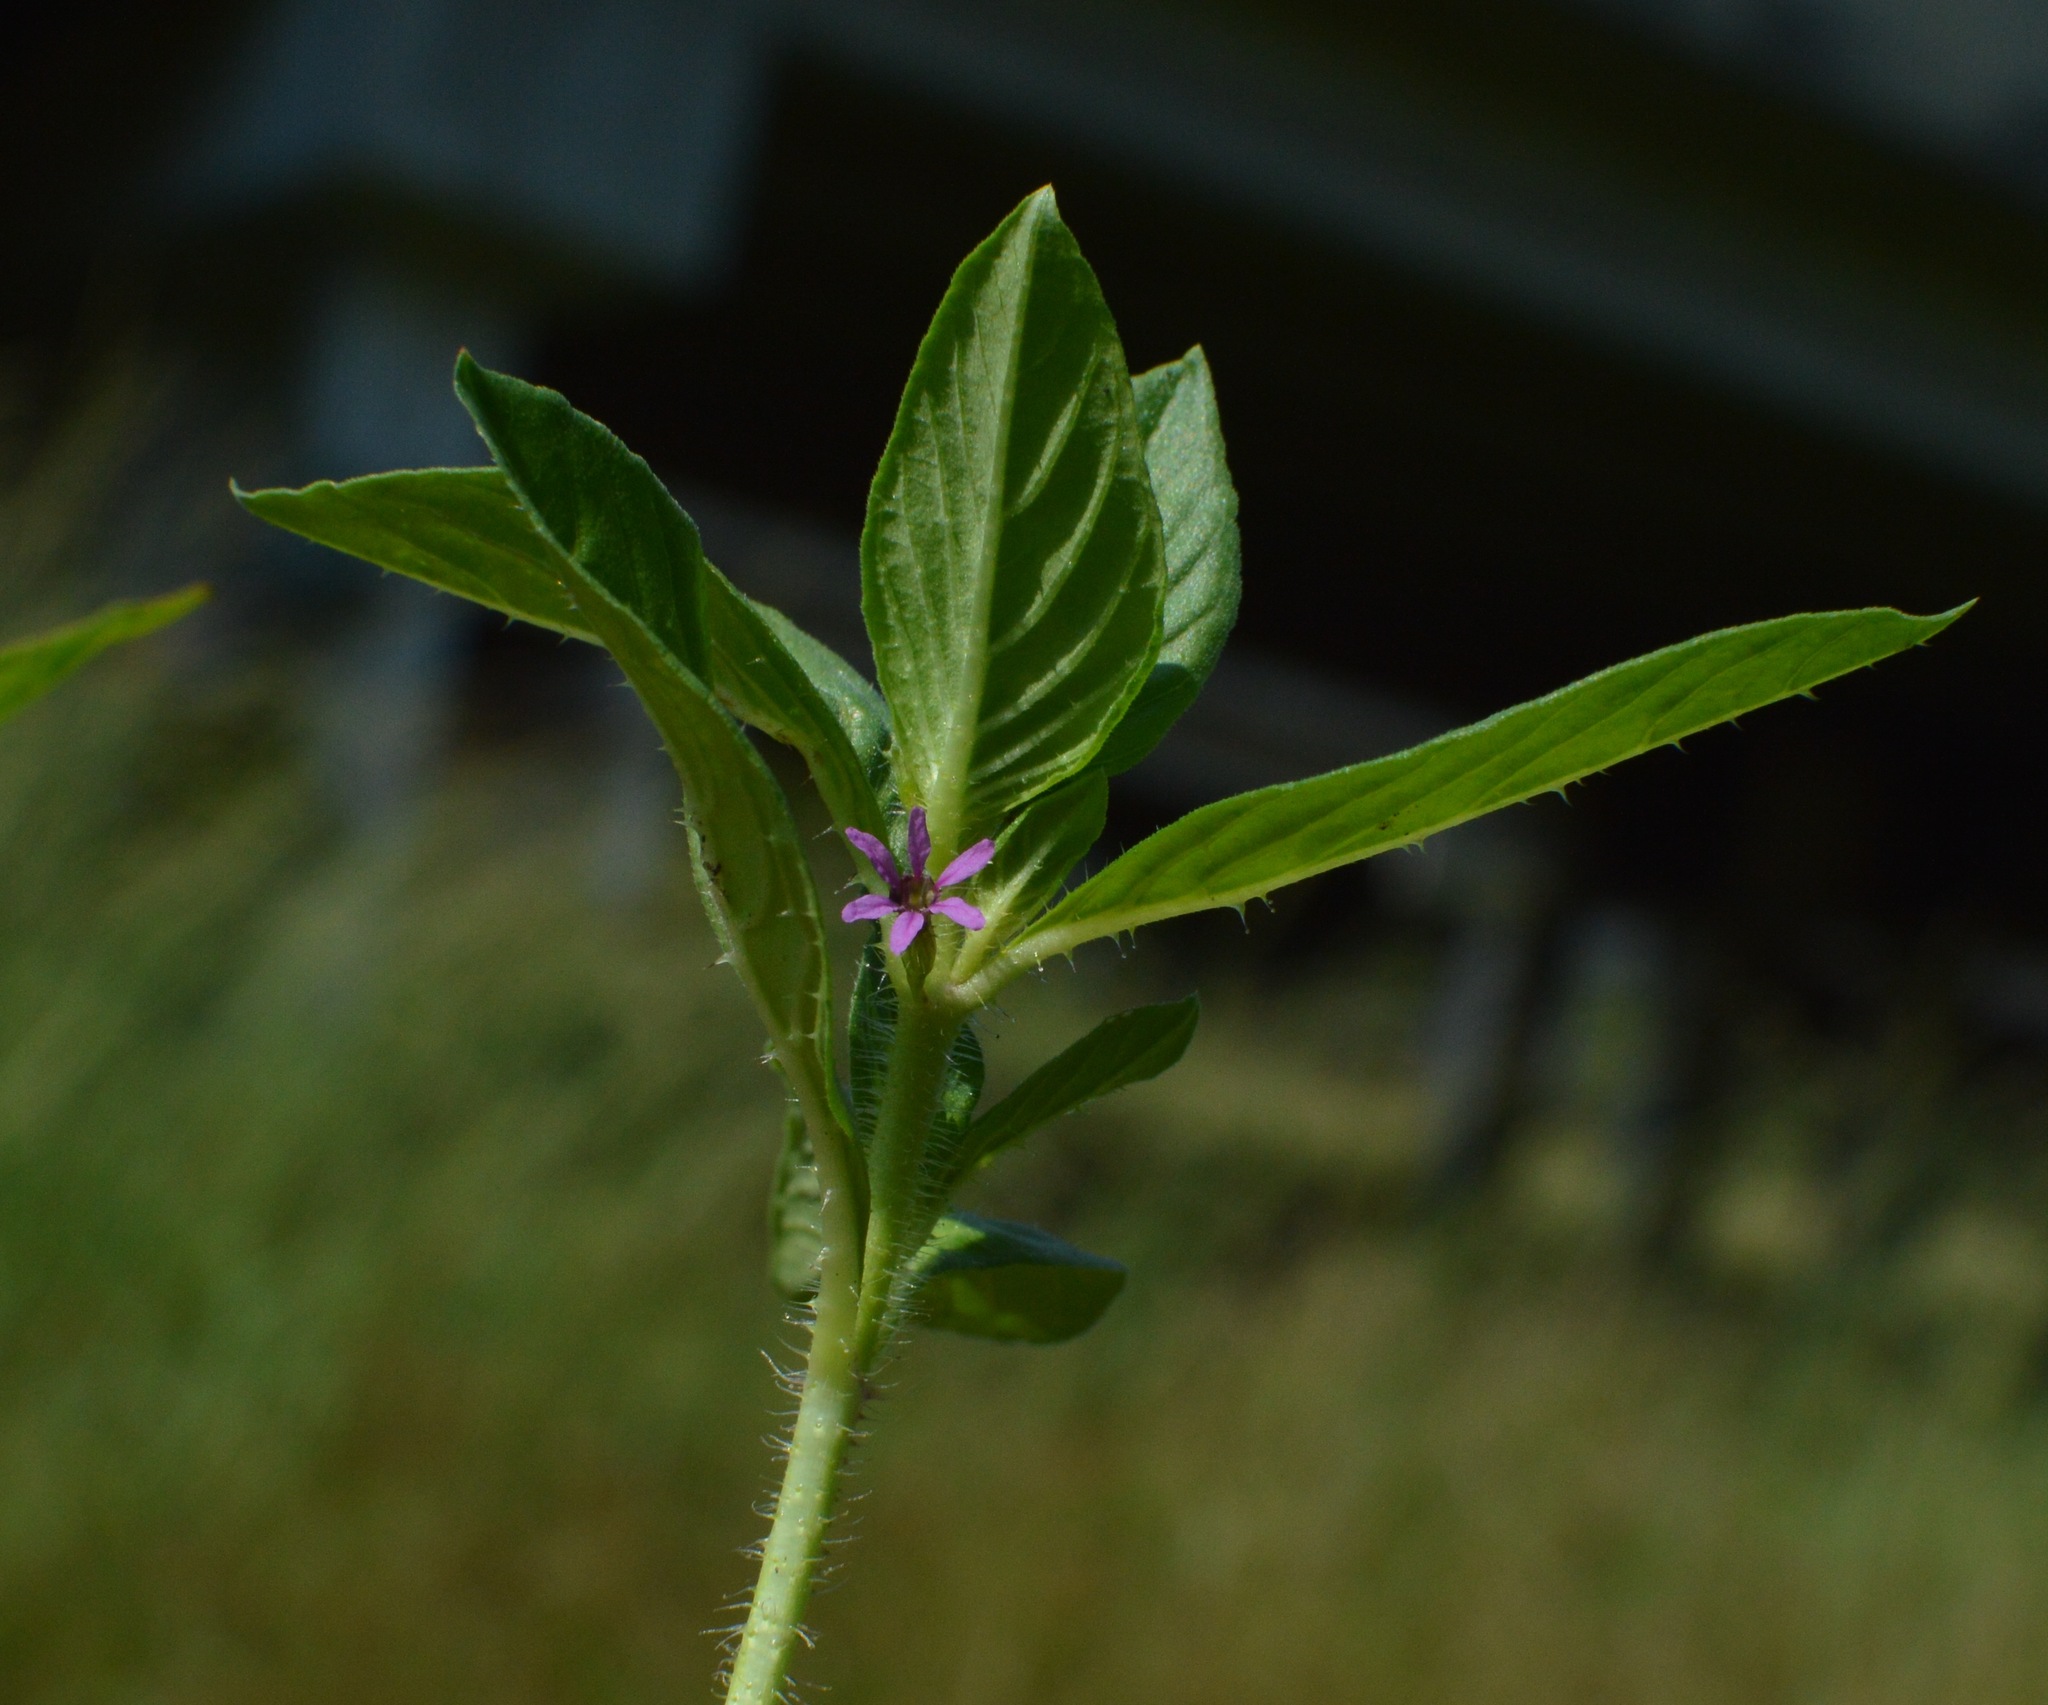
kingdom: Plantae
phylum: Tracheophyta
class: Magnoliopsida
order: Myrtales
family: Lythraceae
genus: Cuphea
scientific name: Cuphea carthagenensis
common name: Colombian waxweed
